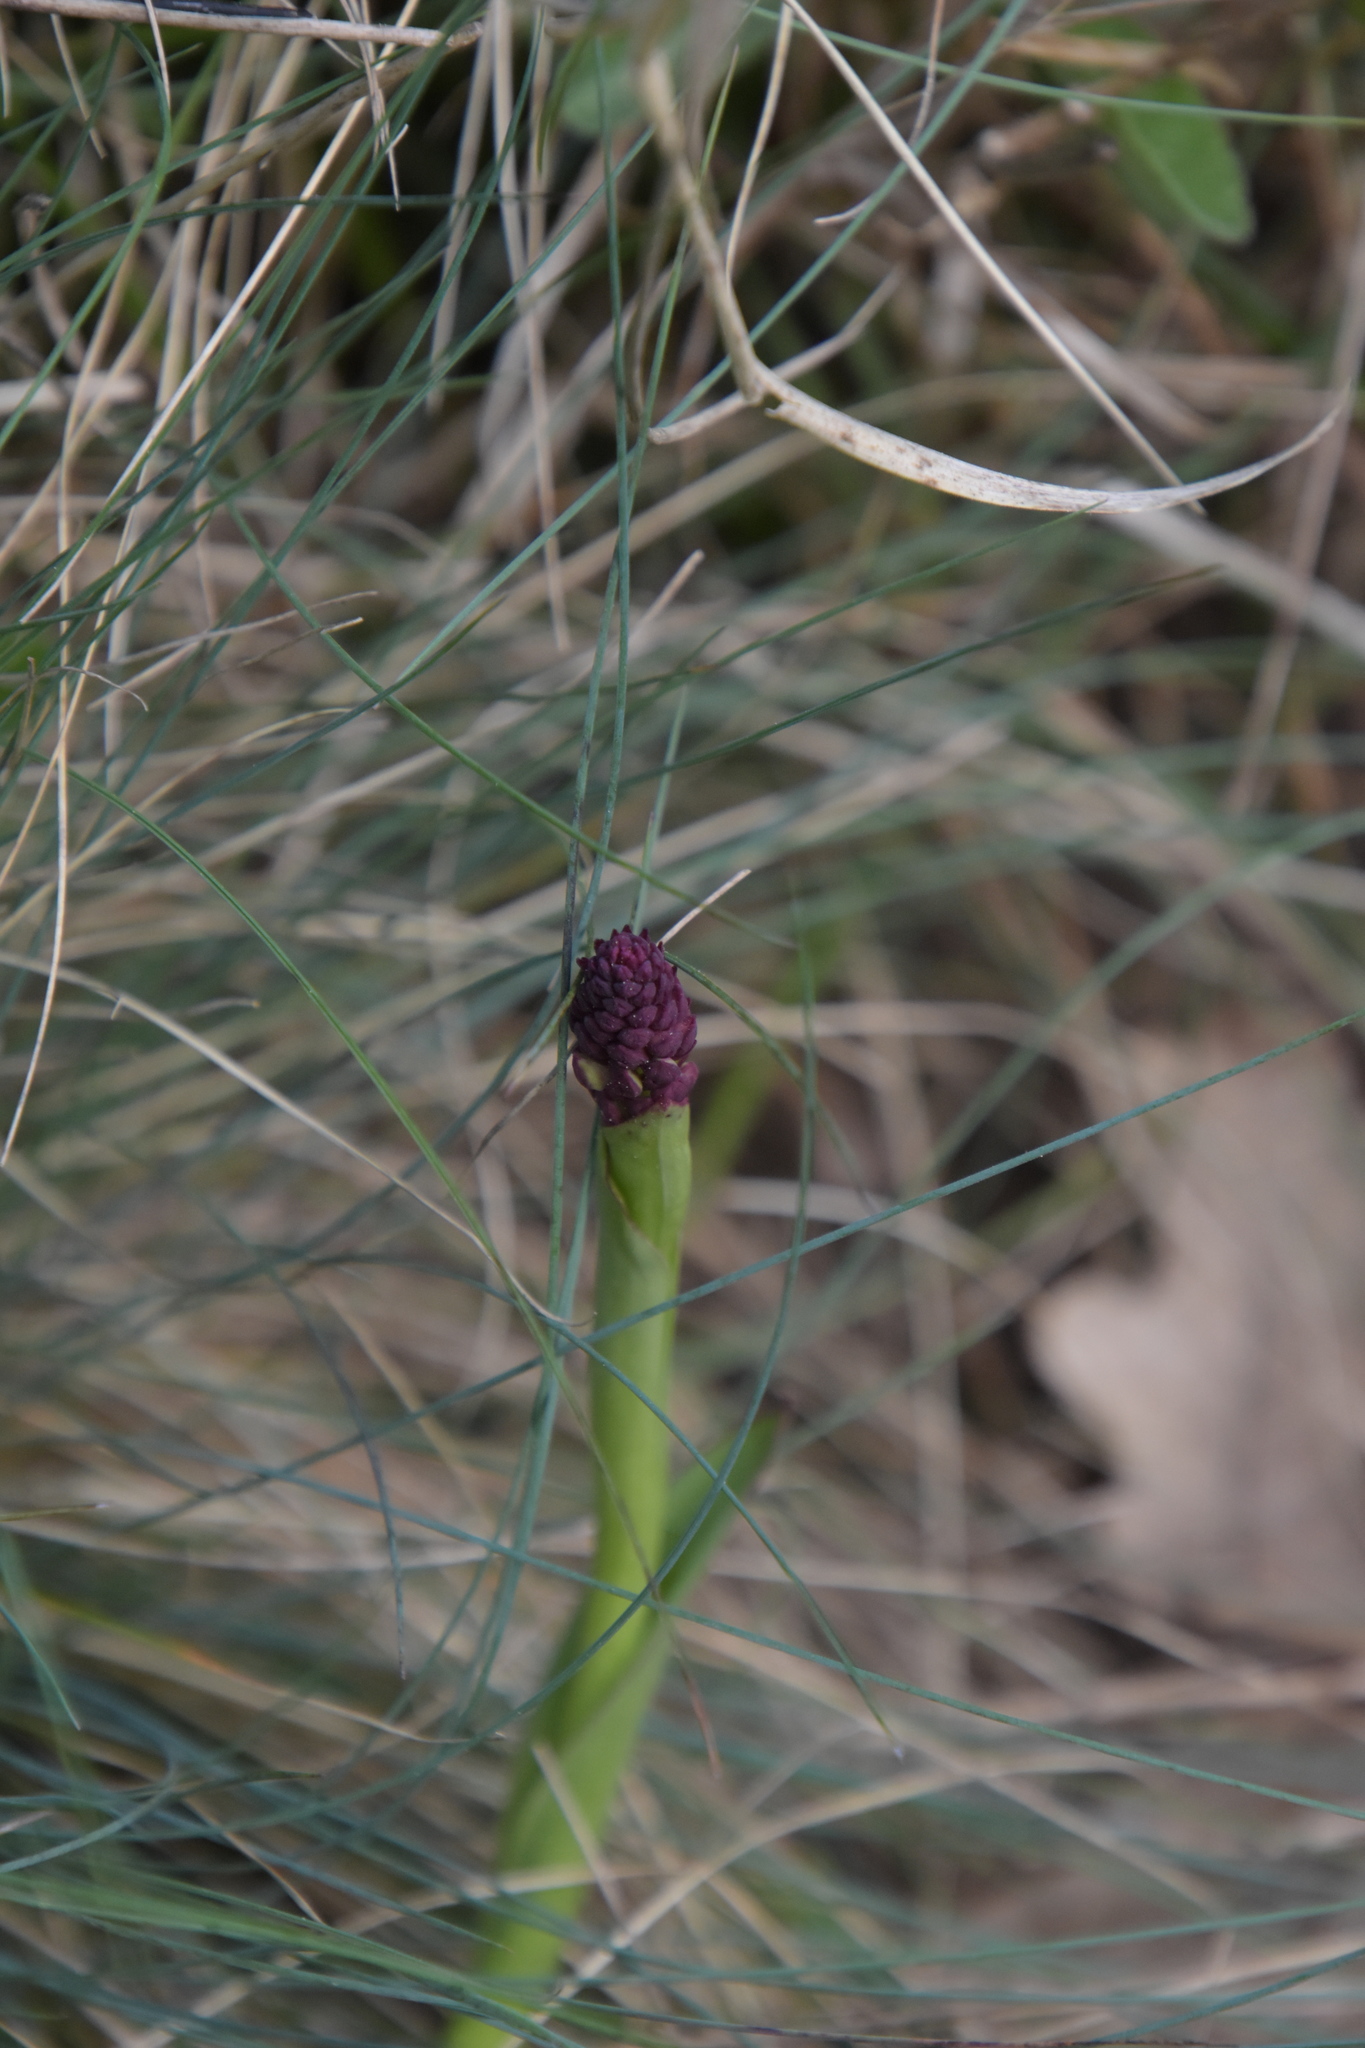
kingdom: Plantae
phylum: Tracheophyta
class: Liliopsida
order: Asparagales
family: Orchidaceae
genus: Neotinea
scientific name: Neotinea ustulata
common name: Burnt orchid
